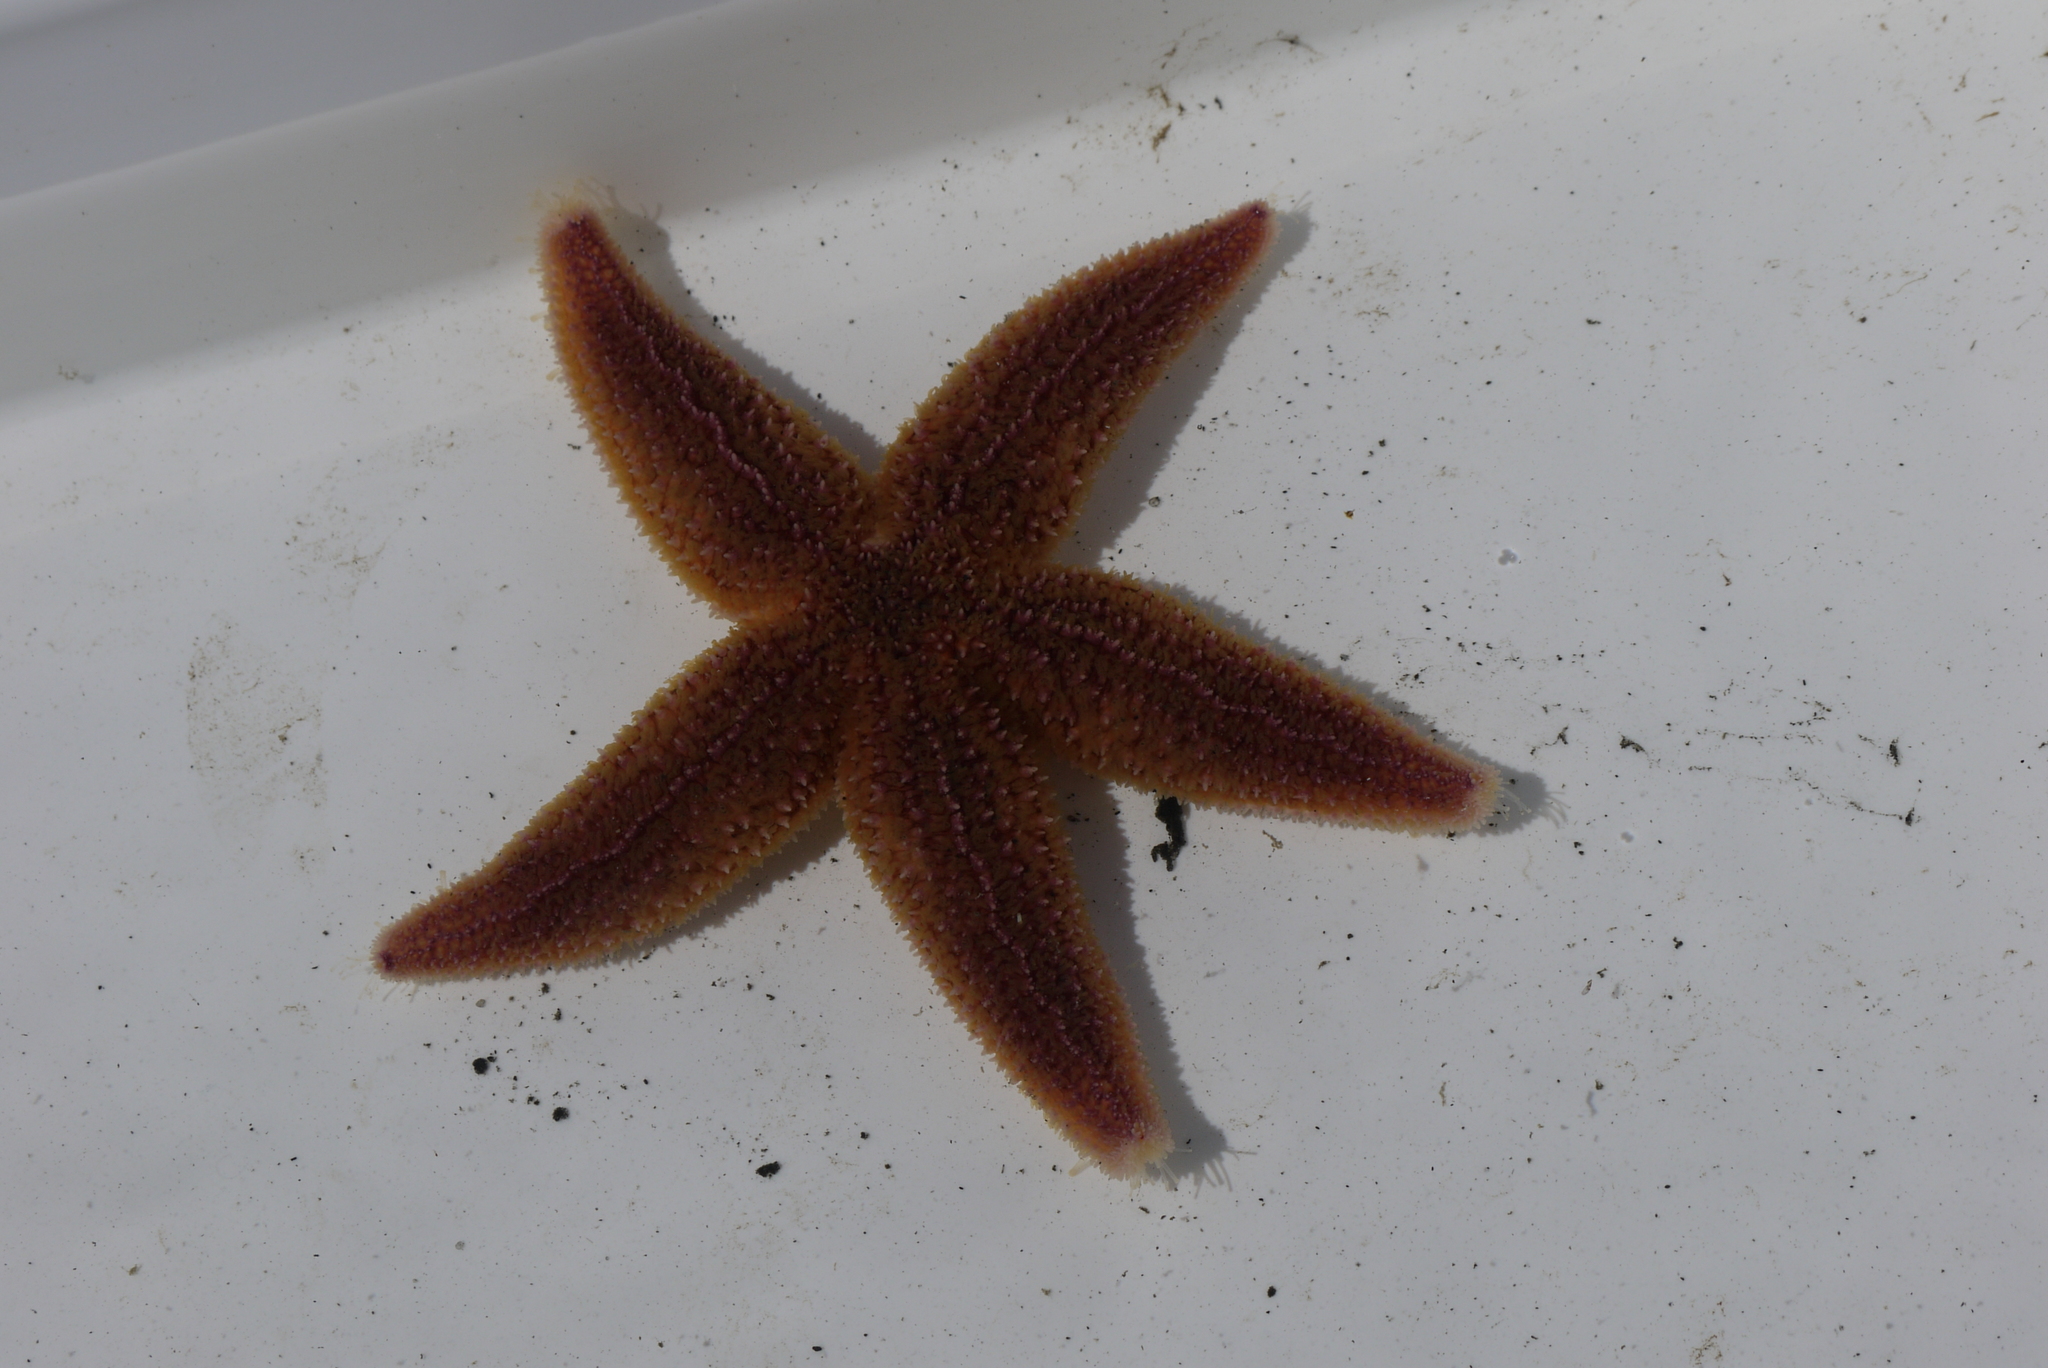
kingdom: Animalia
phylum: Echinodermata
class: Asteroidea
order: Forcipulatida
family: Asteriidae
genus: Asterias
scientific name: Asterias rubens
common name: Common starfish
